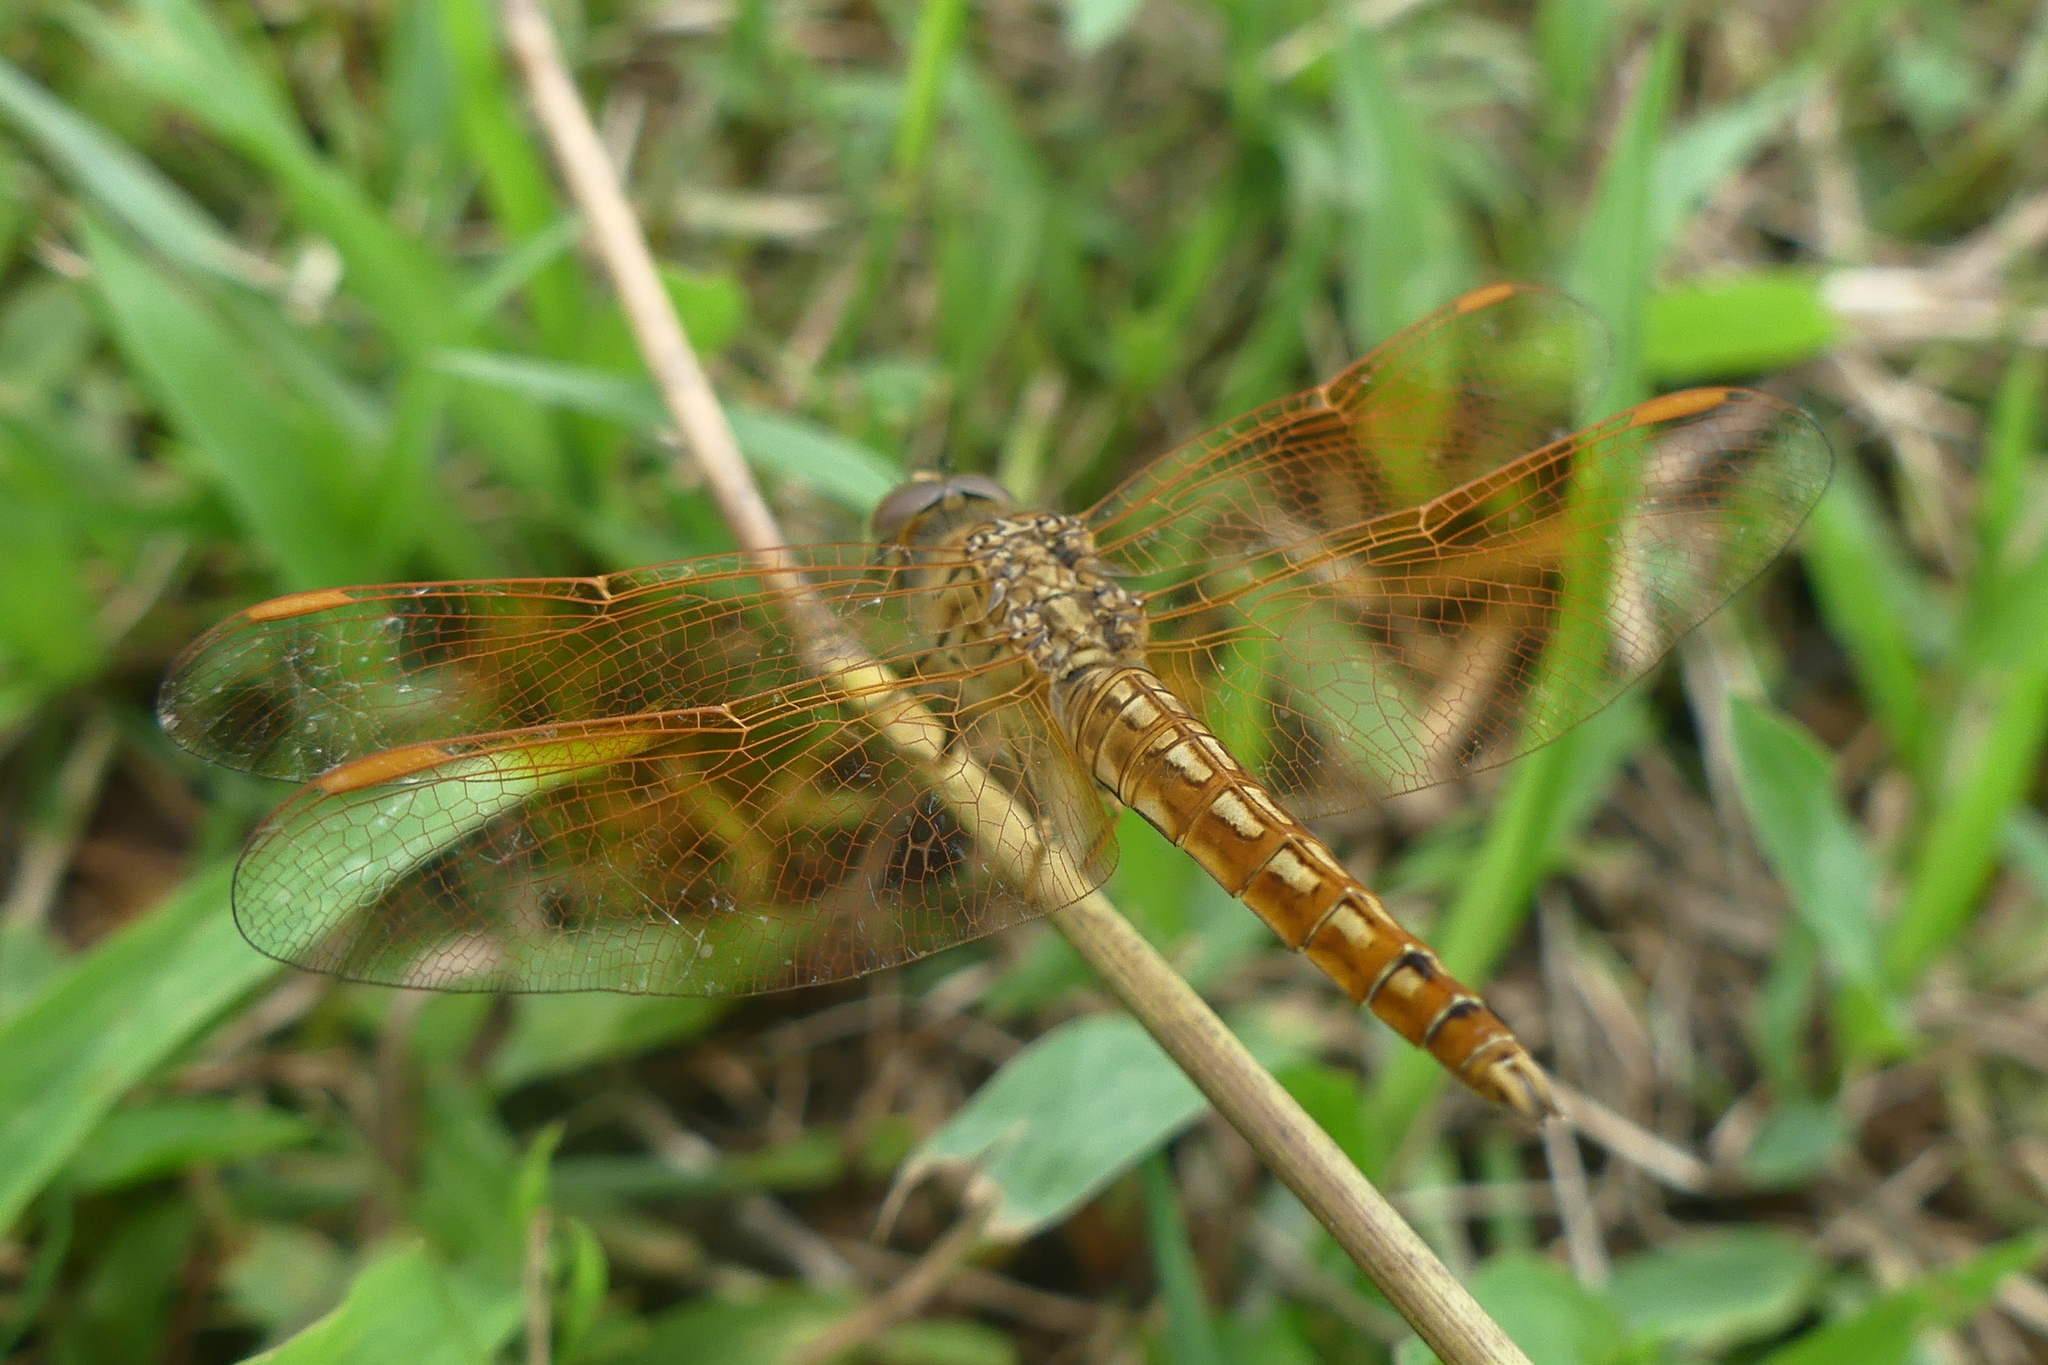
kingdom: Animalia
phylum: Arthropoda
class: Insecta
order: Odonata
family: Libellulidae
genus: Brachythemis
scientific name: Brachythemis contaminata
